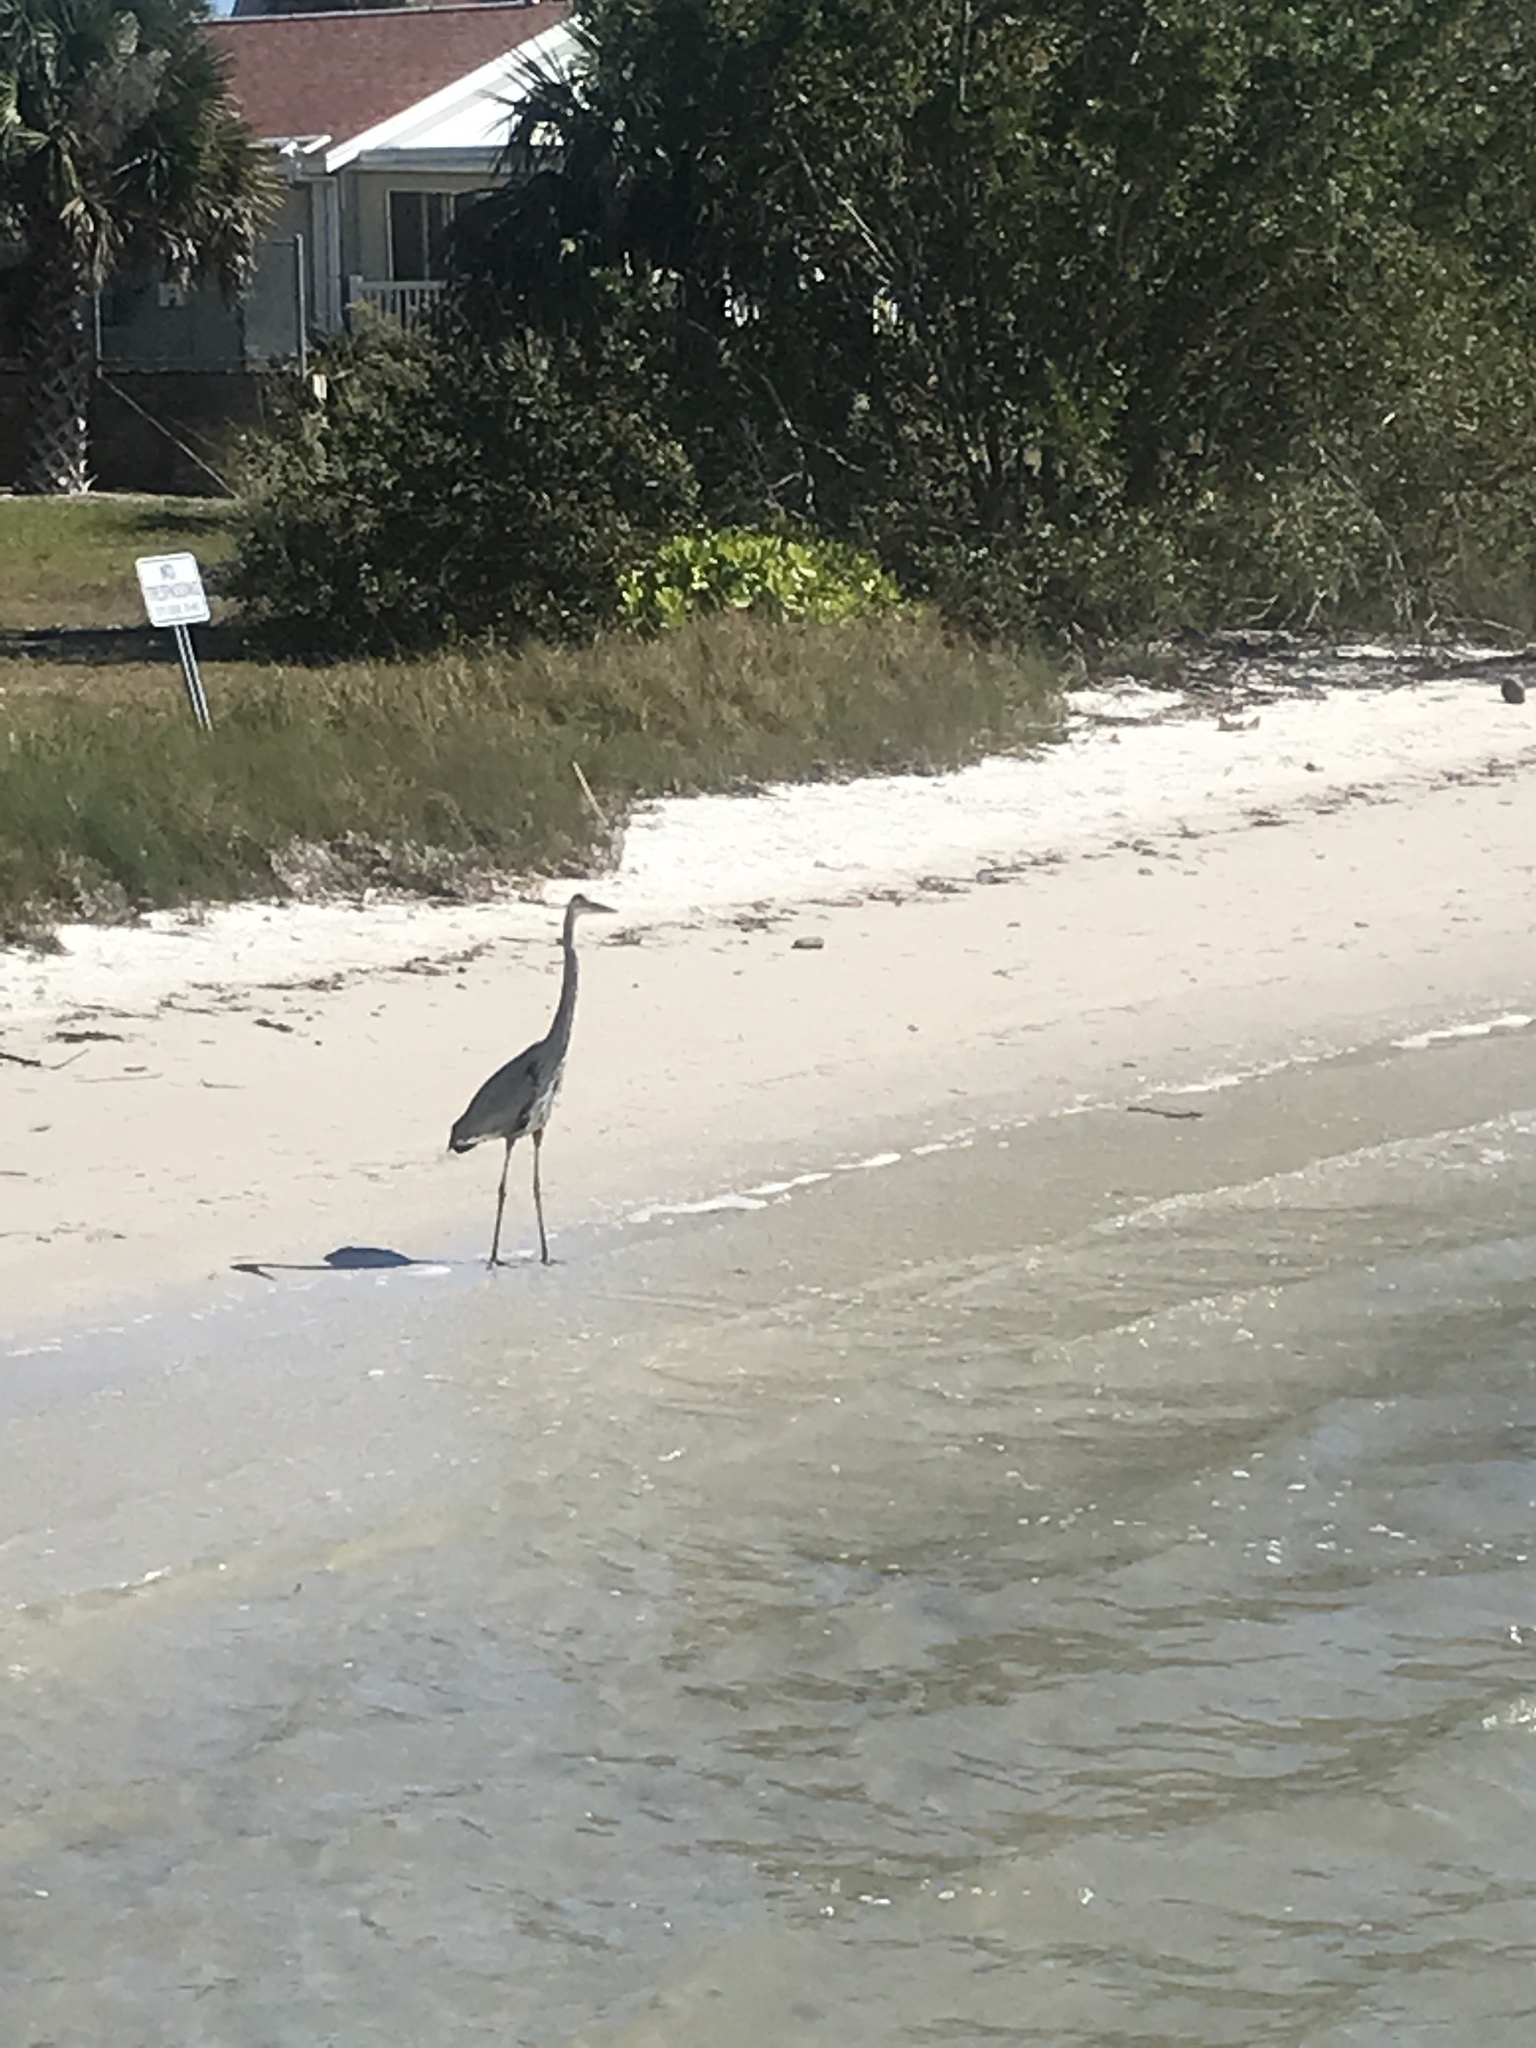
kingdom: Animalia
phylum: Chordata
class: Aves
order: Pelecaniformes
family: Ardeidae
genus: Ardea
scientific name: Ardea herodias
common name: Great blue heron
